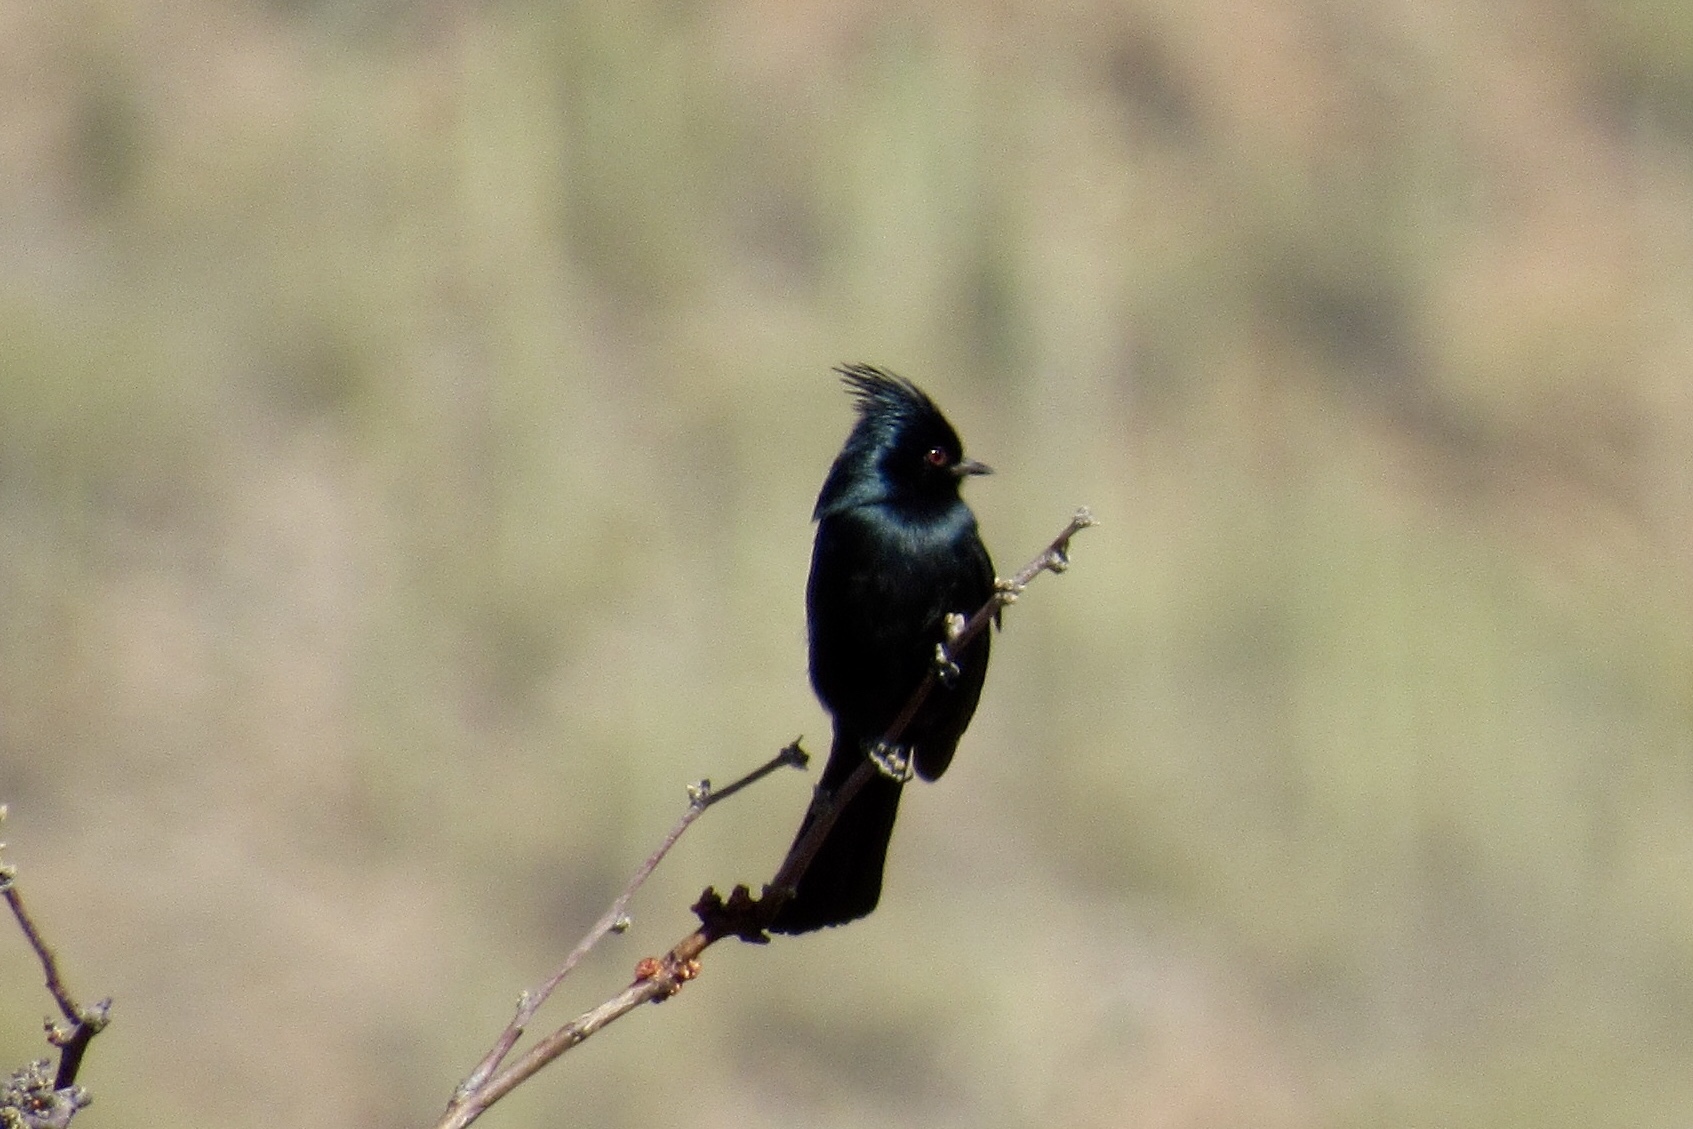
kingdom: Animalia
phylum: Chordata
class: Aves
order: Passeriformes
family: Ptilogonatidae
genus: Phainopepla
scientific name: Phainopepla nitens
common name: Phainopepla
